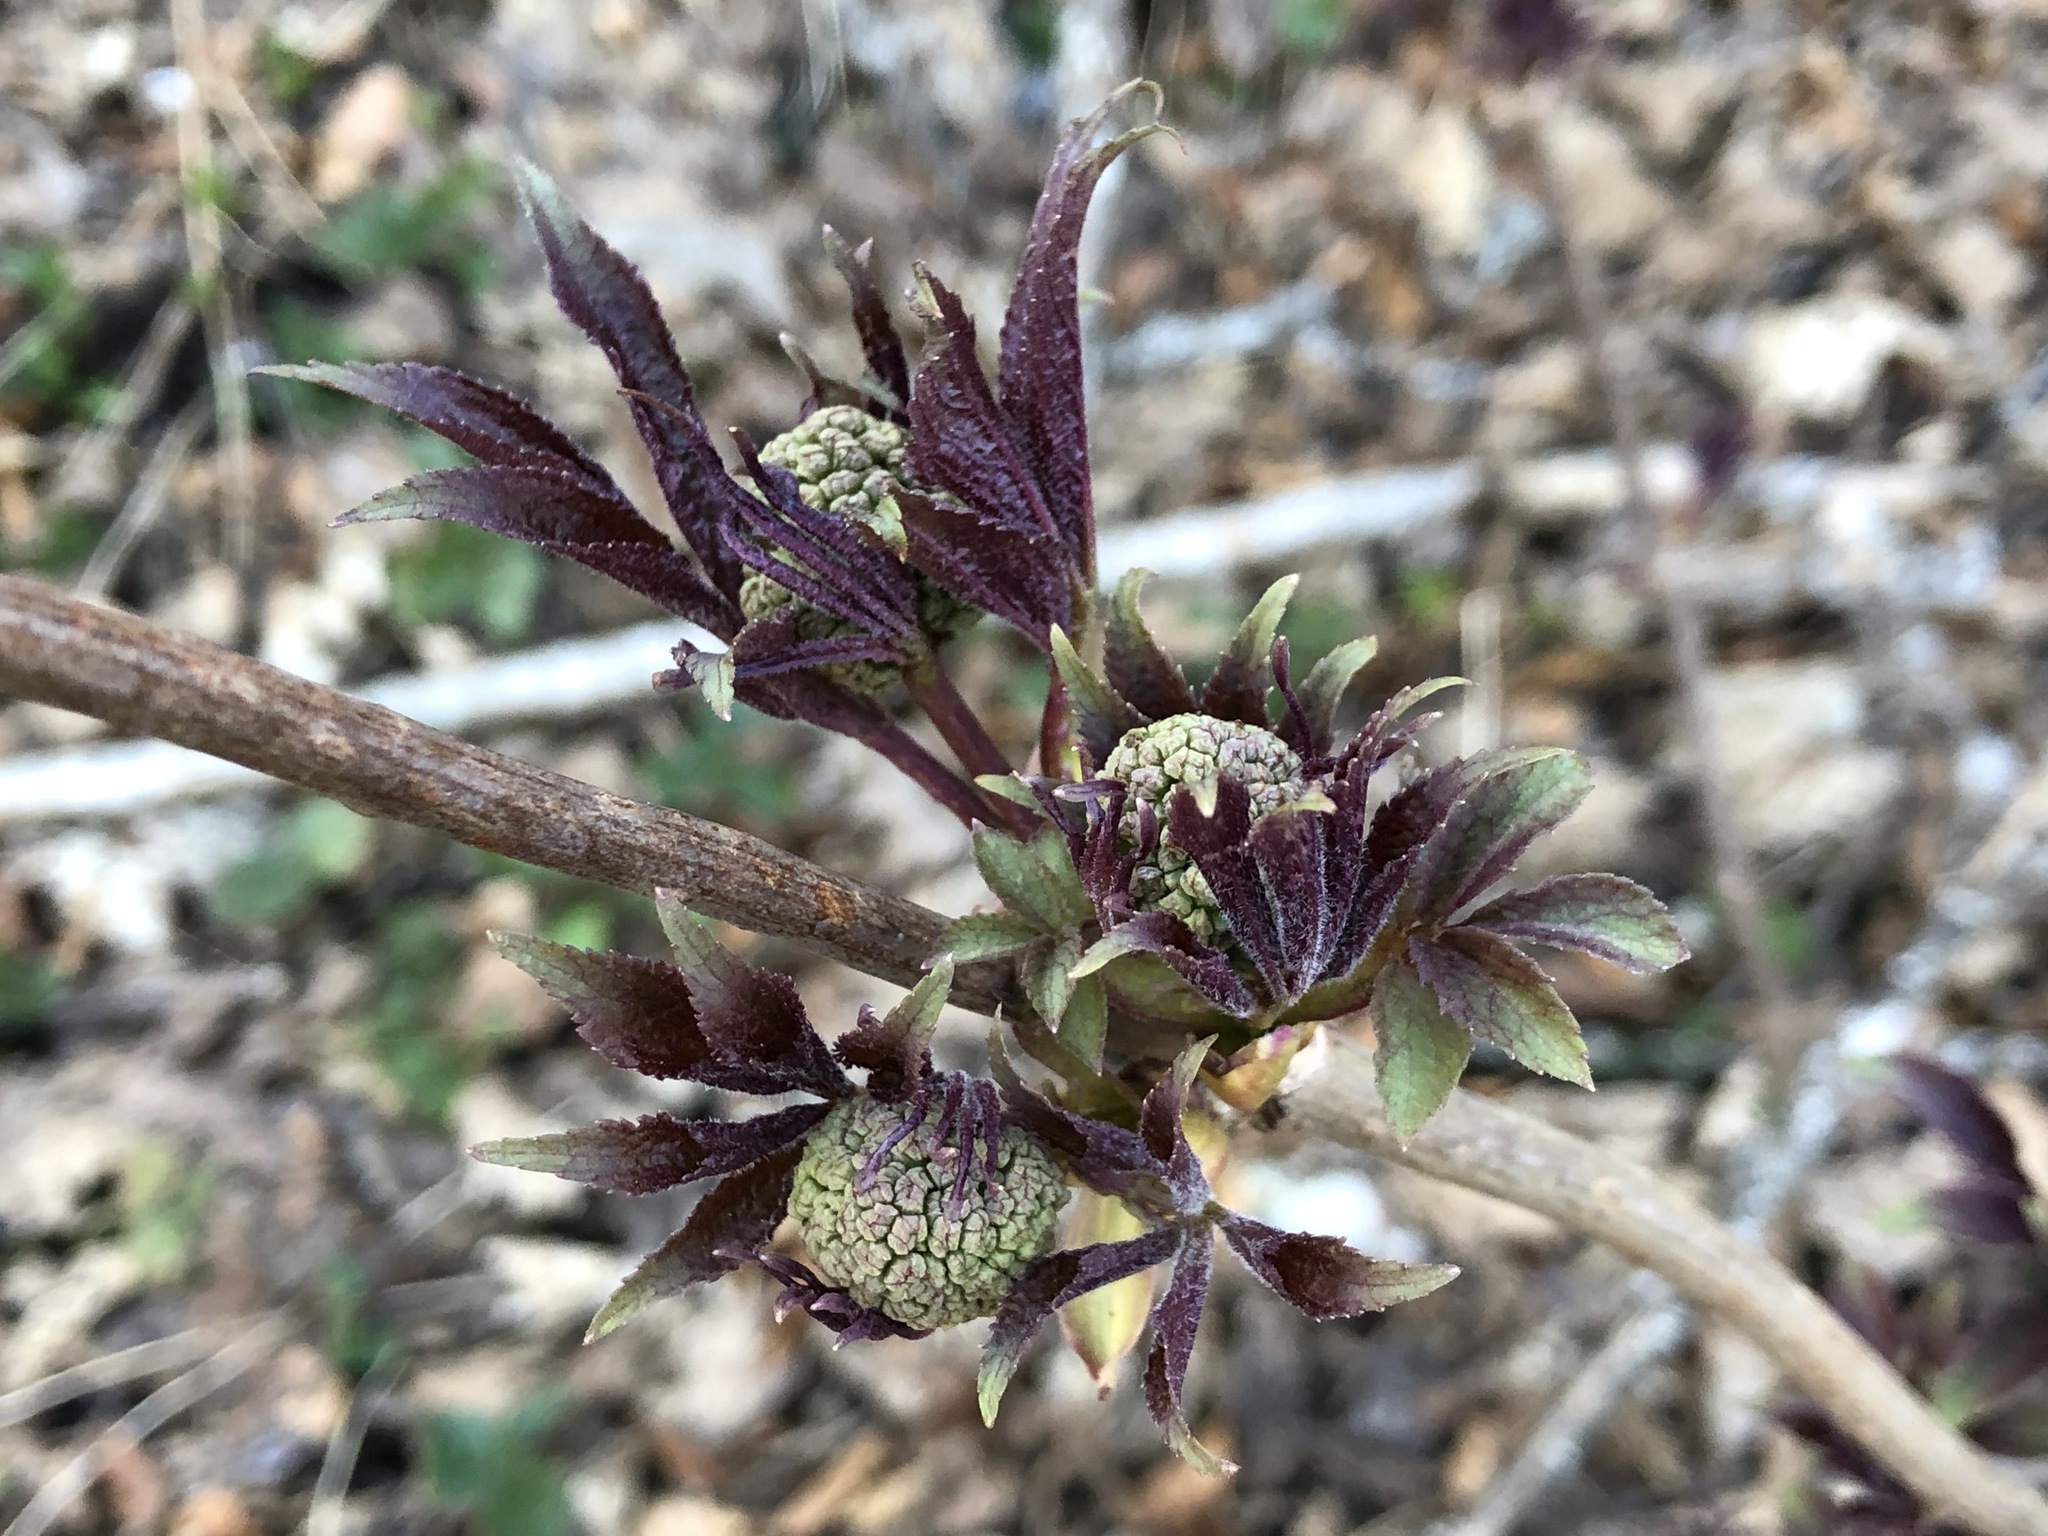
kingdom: Plantae
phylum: Tracheophyta
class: Magnoliopsida
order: Dipsacales
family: Viburnaceae
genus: Sambucus
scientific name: Sambucus racemosa
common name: Red-berried elder
